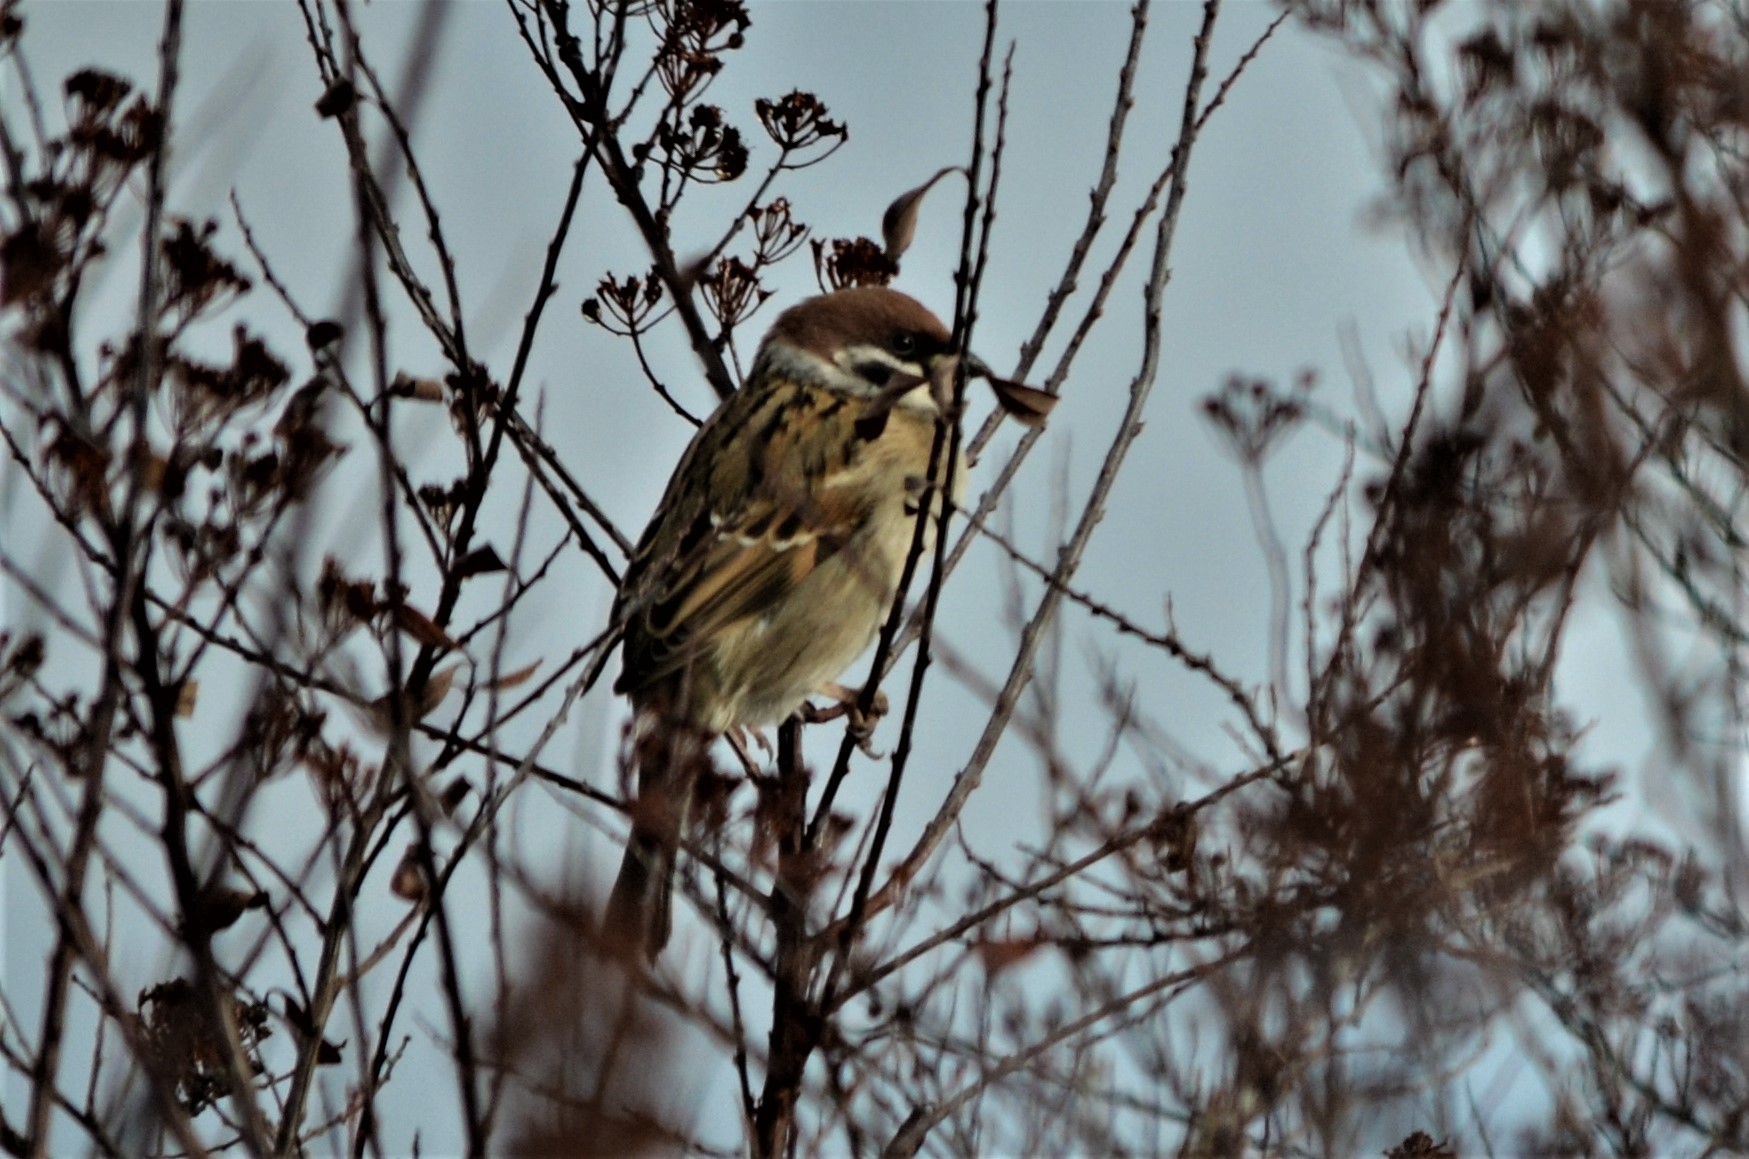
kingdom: Animalia
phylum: Chordata
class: Aves
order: Passeriformes
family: Passeridae
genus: Passer
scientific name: Passer montanus
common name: Eurasian tree sparrow
